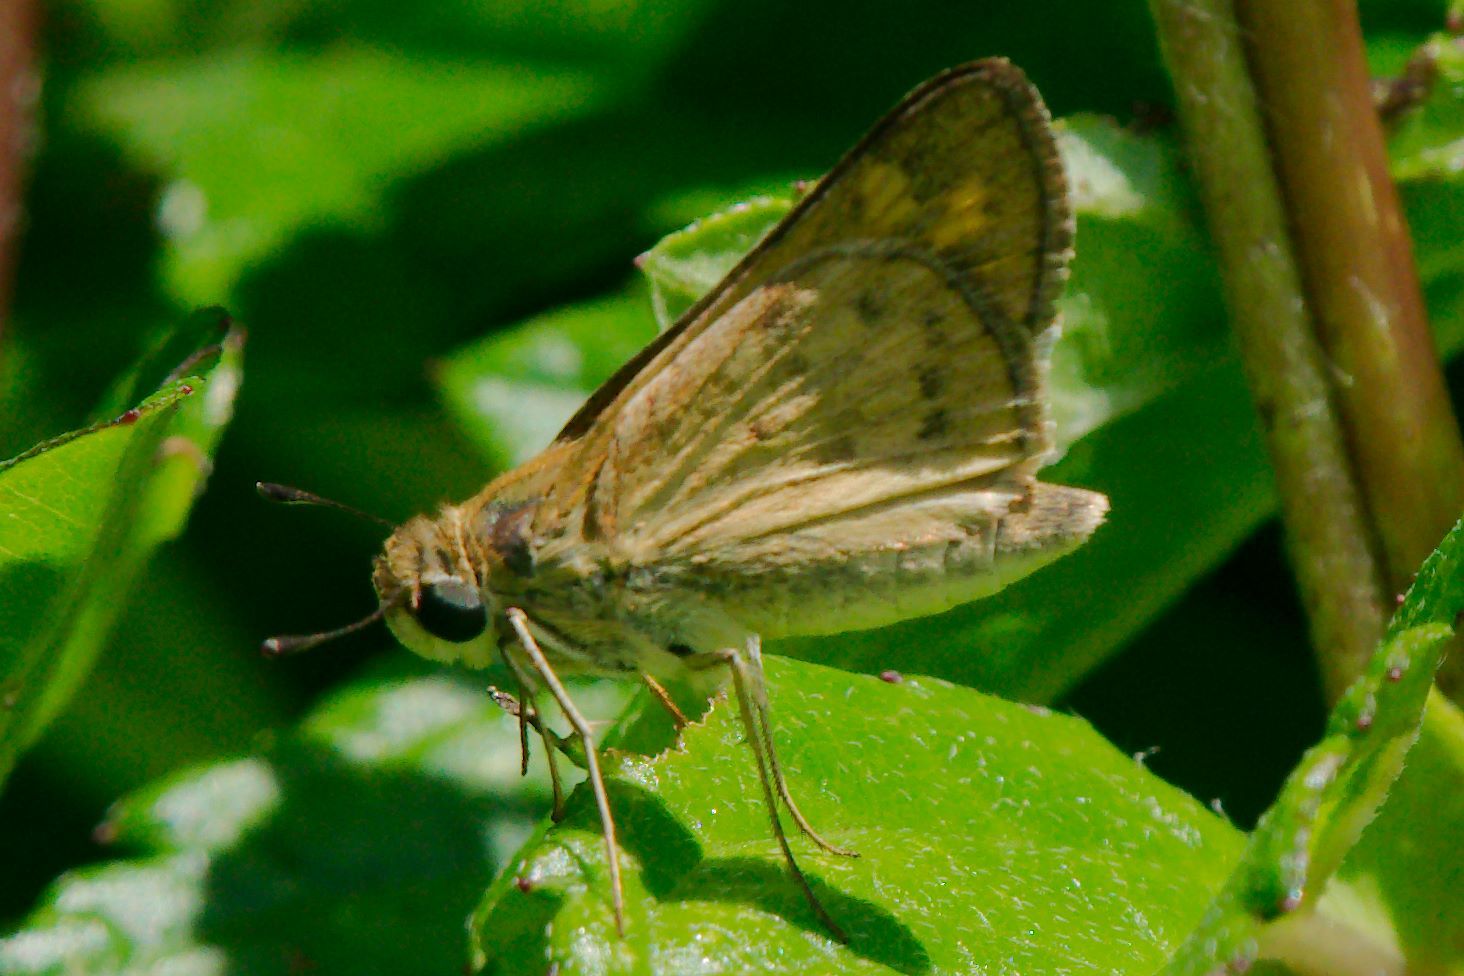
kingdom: Animalia
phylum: Arthropoda
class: Insecta
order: Lepidoptera
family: Hesperiidae
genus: Hylephila
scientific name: Hylephila phyleus
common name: Fiery skipper
